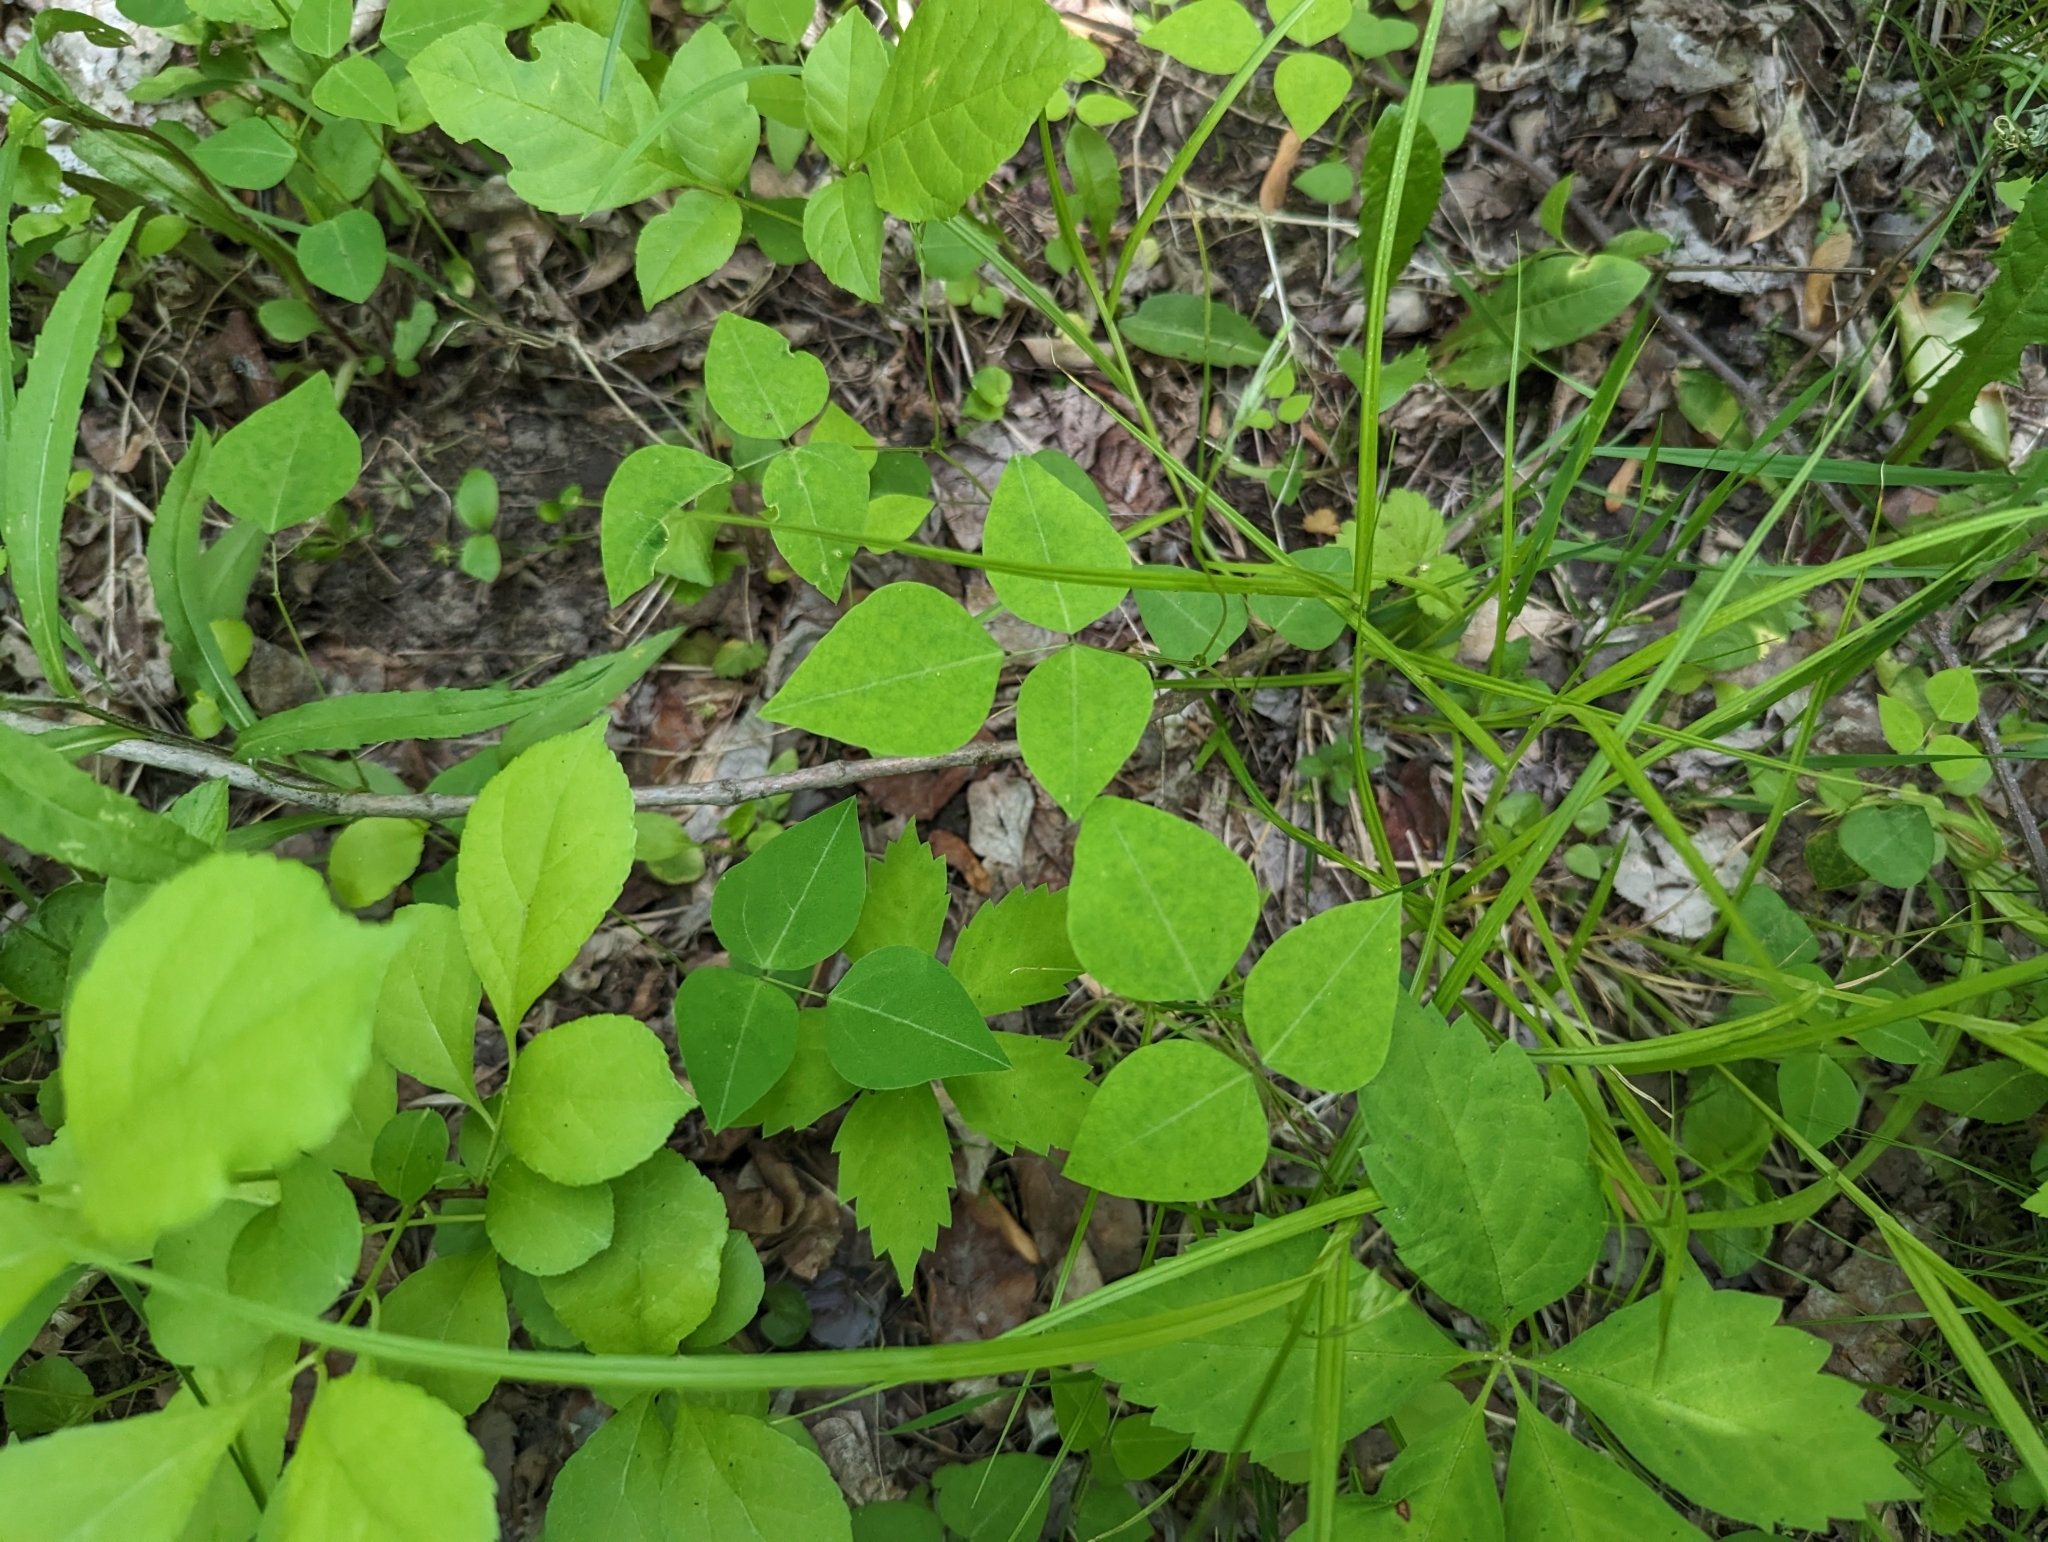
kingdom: Plantae
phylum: Tracheophyta
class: Magnoliopsida
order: Fabales
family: Fabaceae
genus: Amphicarpaea
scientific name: Amphicarpaea bracteata
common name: American hog peanut
